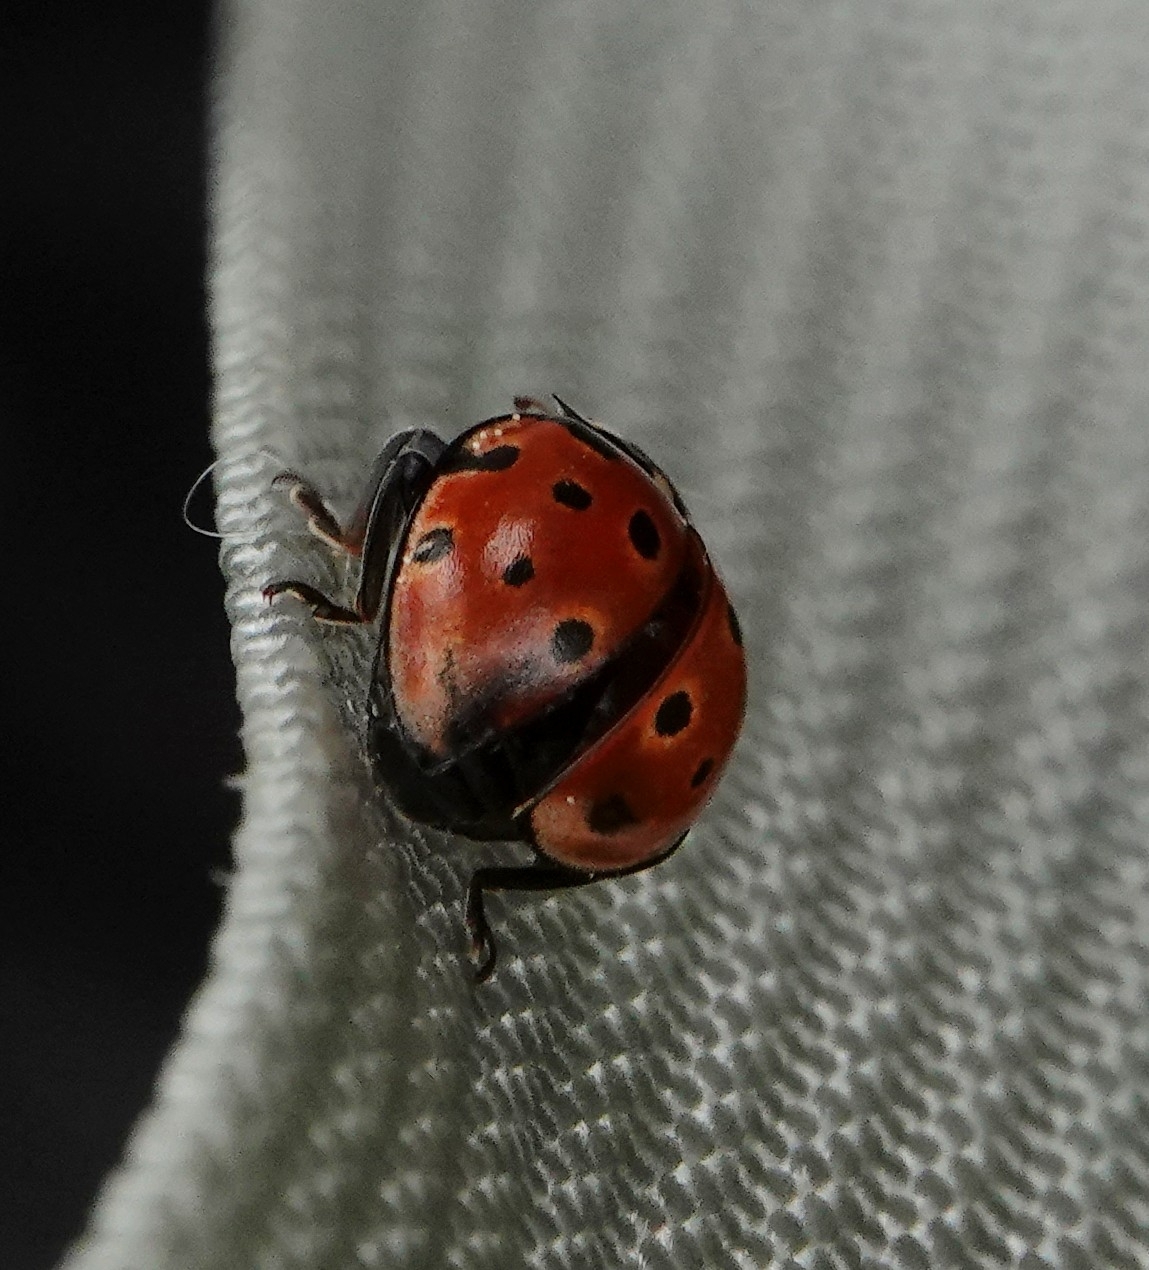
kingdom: Animalia
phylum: Arthropoda
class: Insecta
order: Coleoptera
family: Coccinellidae
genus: Anatis
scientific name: Anatis ocellata
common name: Eyed ladybird
